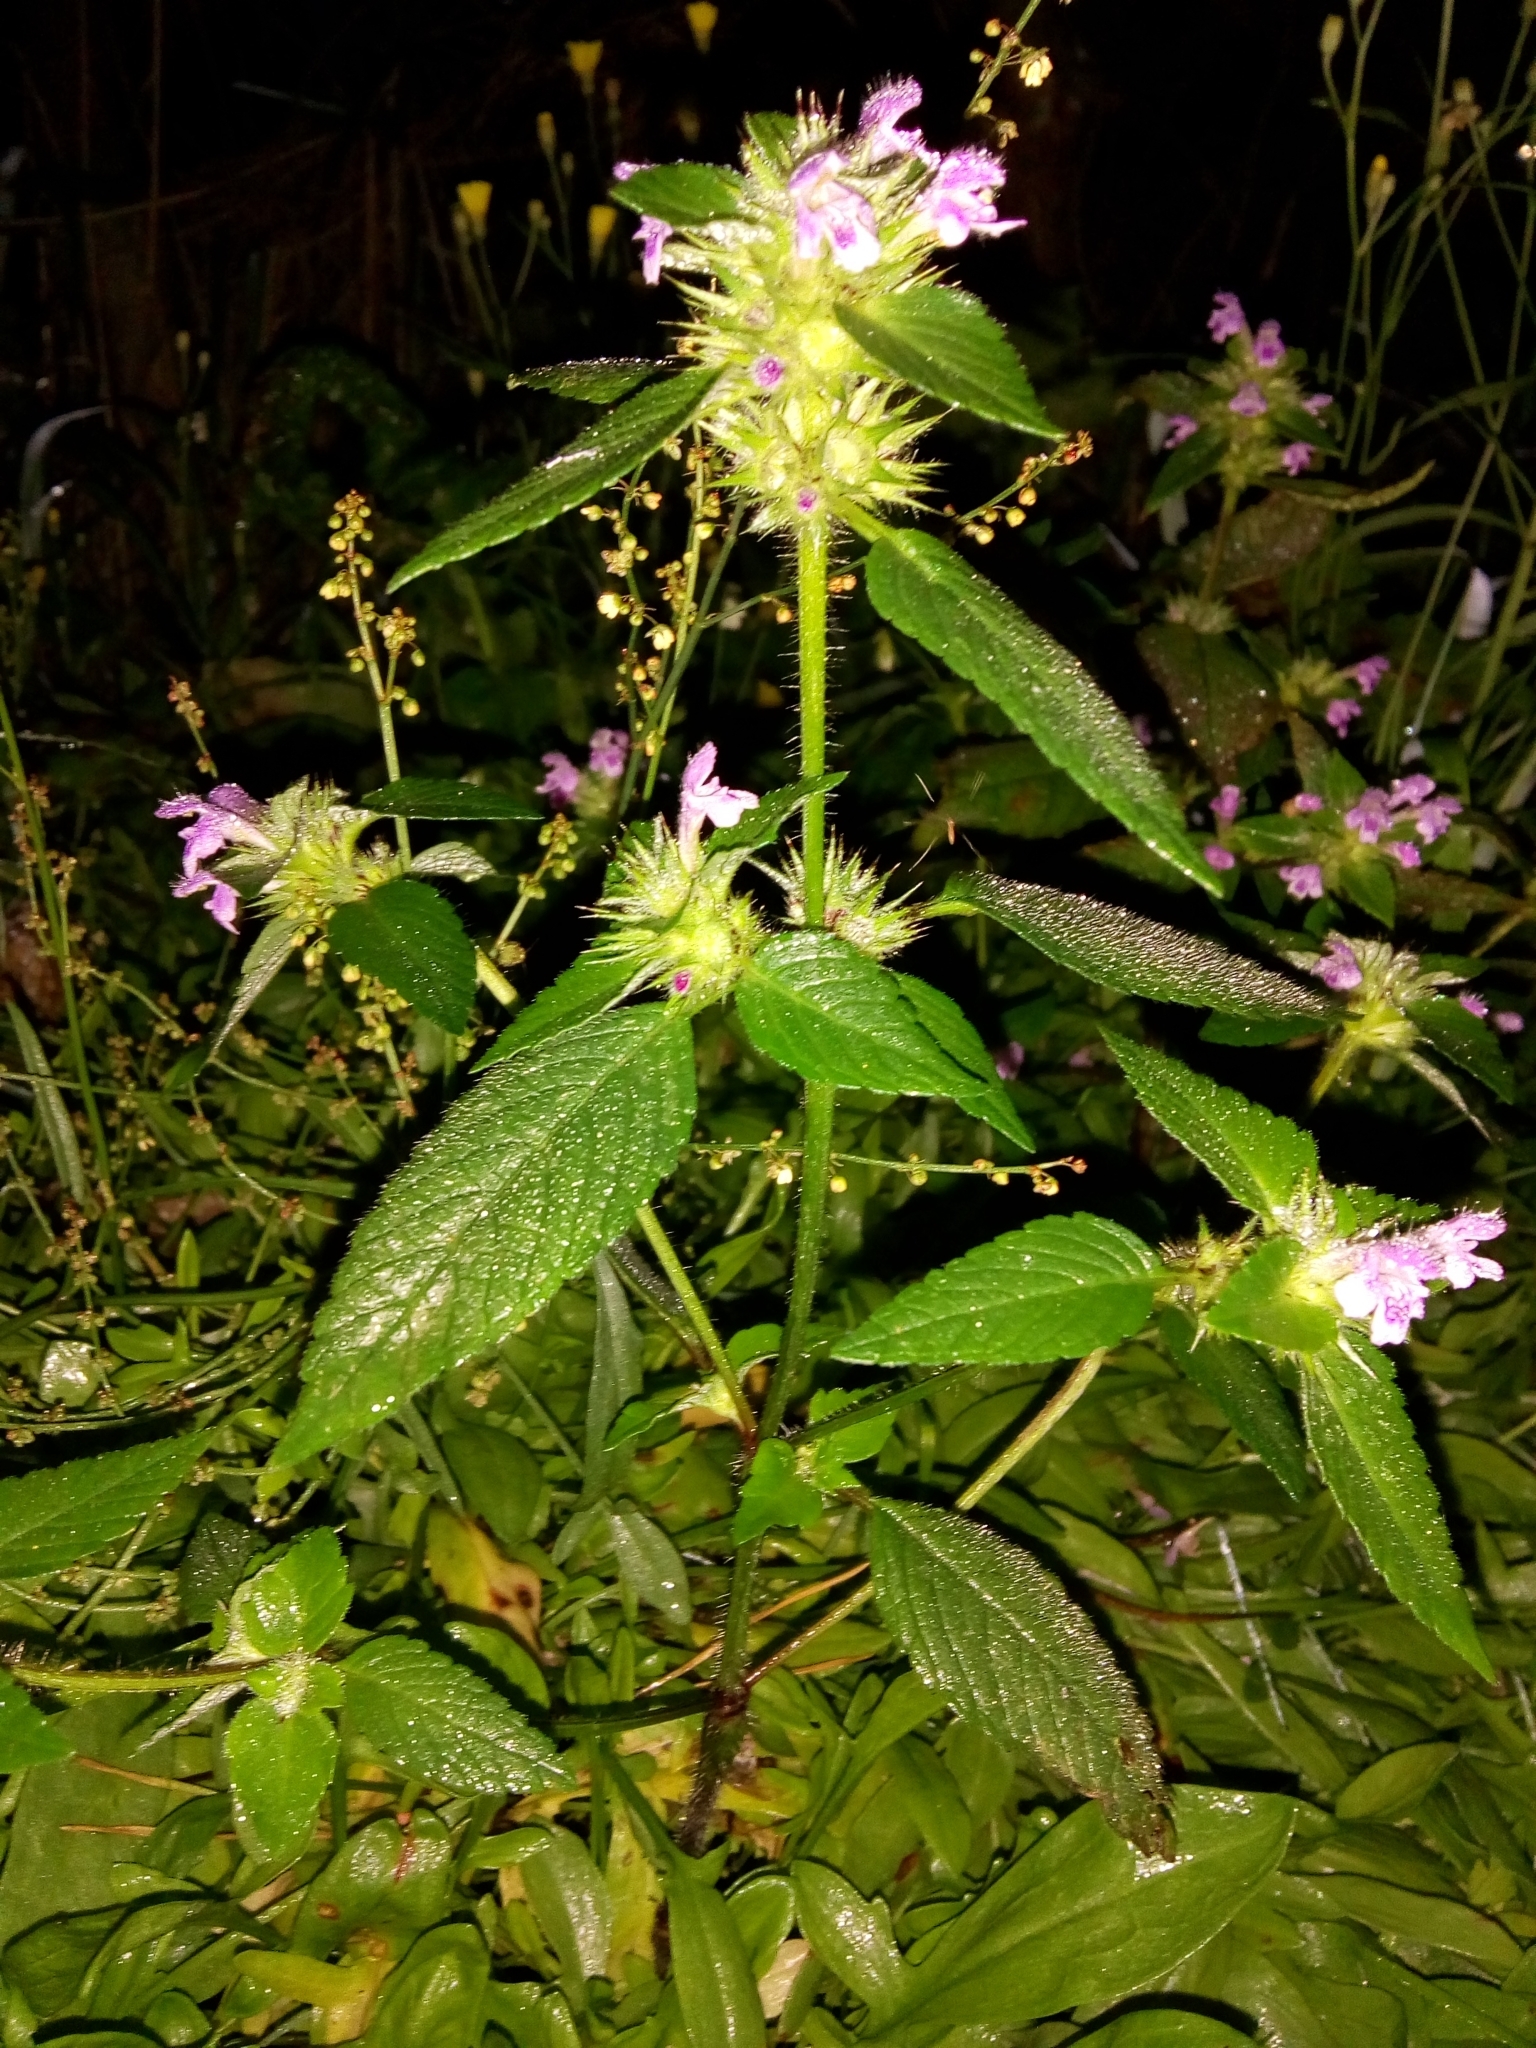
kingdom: Plantae
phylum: Tracheophyta
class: Magnoliopsida
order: Lamiales
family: Lamiaceae
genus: Galeopsis
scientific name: Galeopsis tetrahit
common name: Common hemp-nettle
